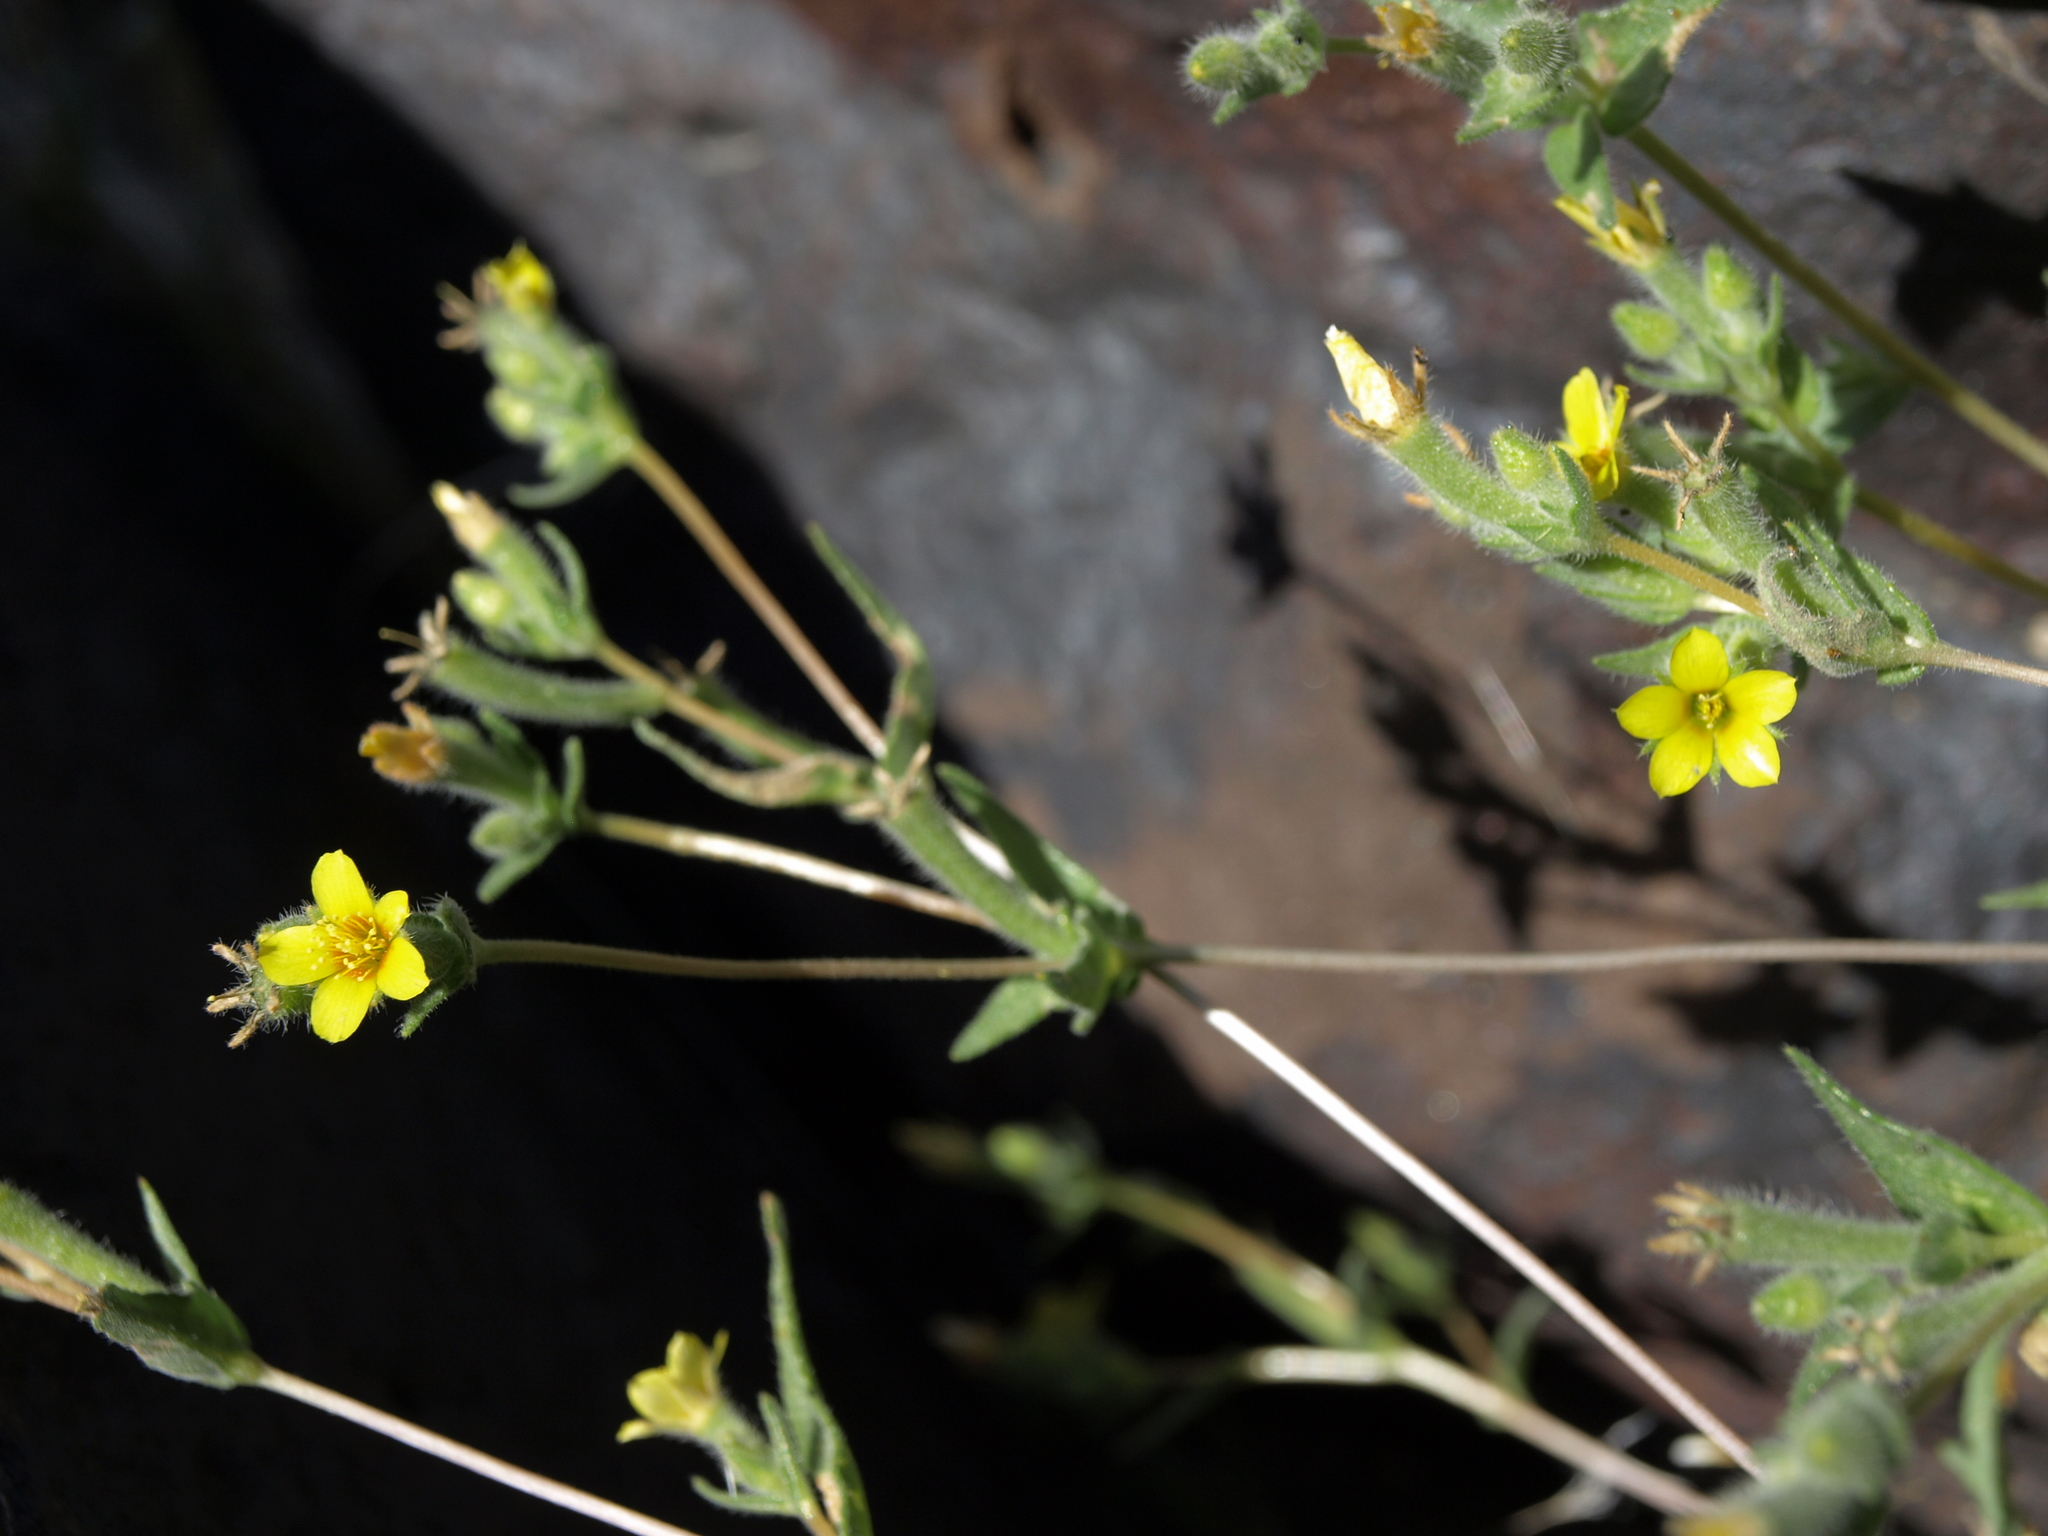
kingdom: Plantae
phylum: Tracheophyta
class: Magnoliopsida
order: Cornales
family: Loasaceae
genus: Mentzelia
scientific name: Mentzelia montana
